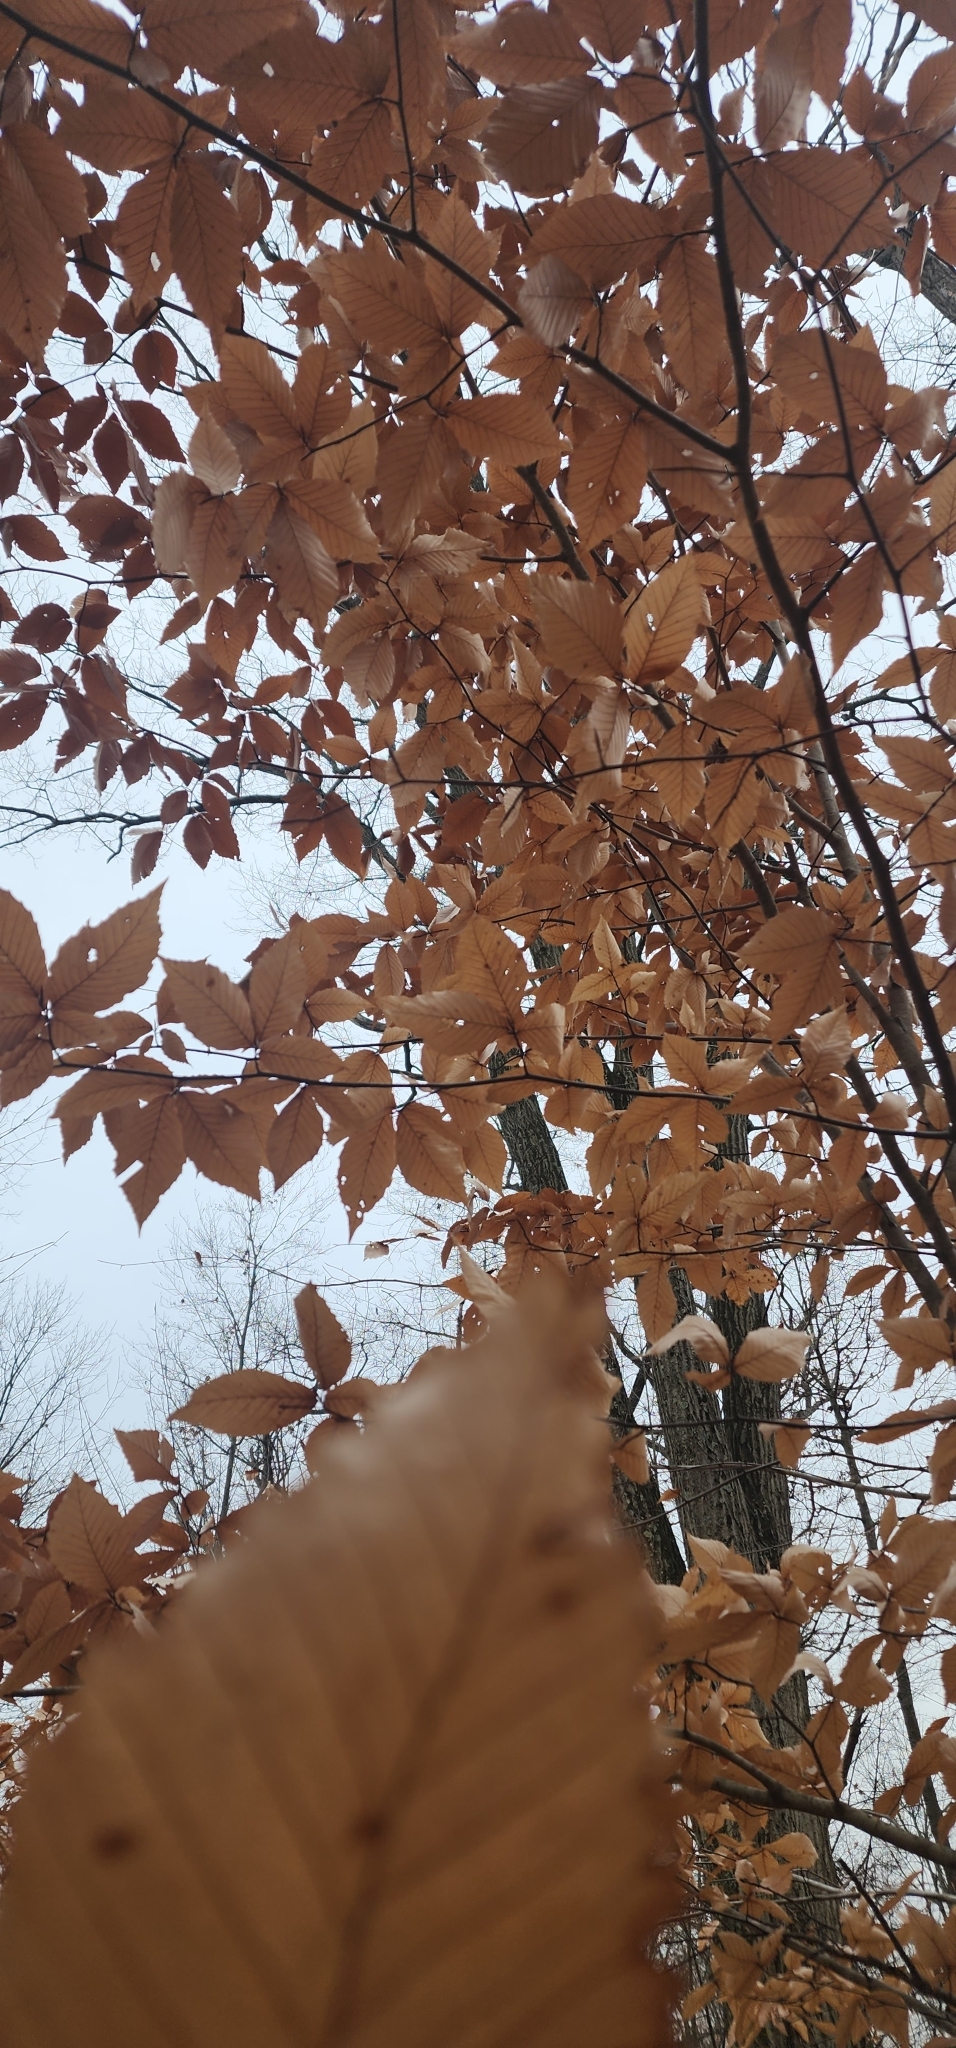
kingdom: Plantae
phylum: Tracheophyta
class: Magnoliopsida
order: Fagales
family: Fagaceae
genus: Fagus
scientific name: Fagus grandifolia
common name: American beech
